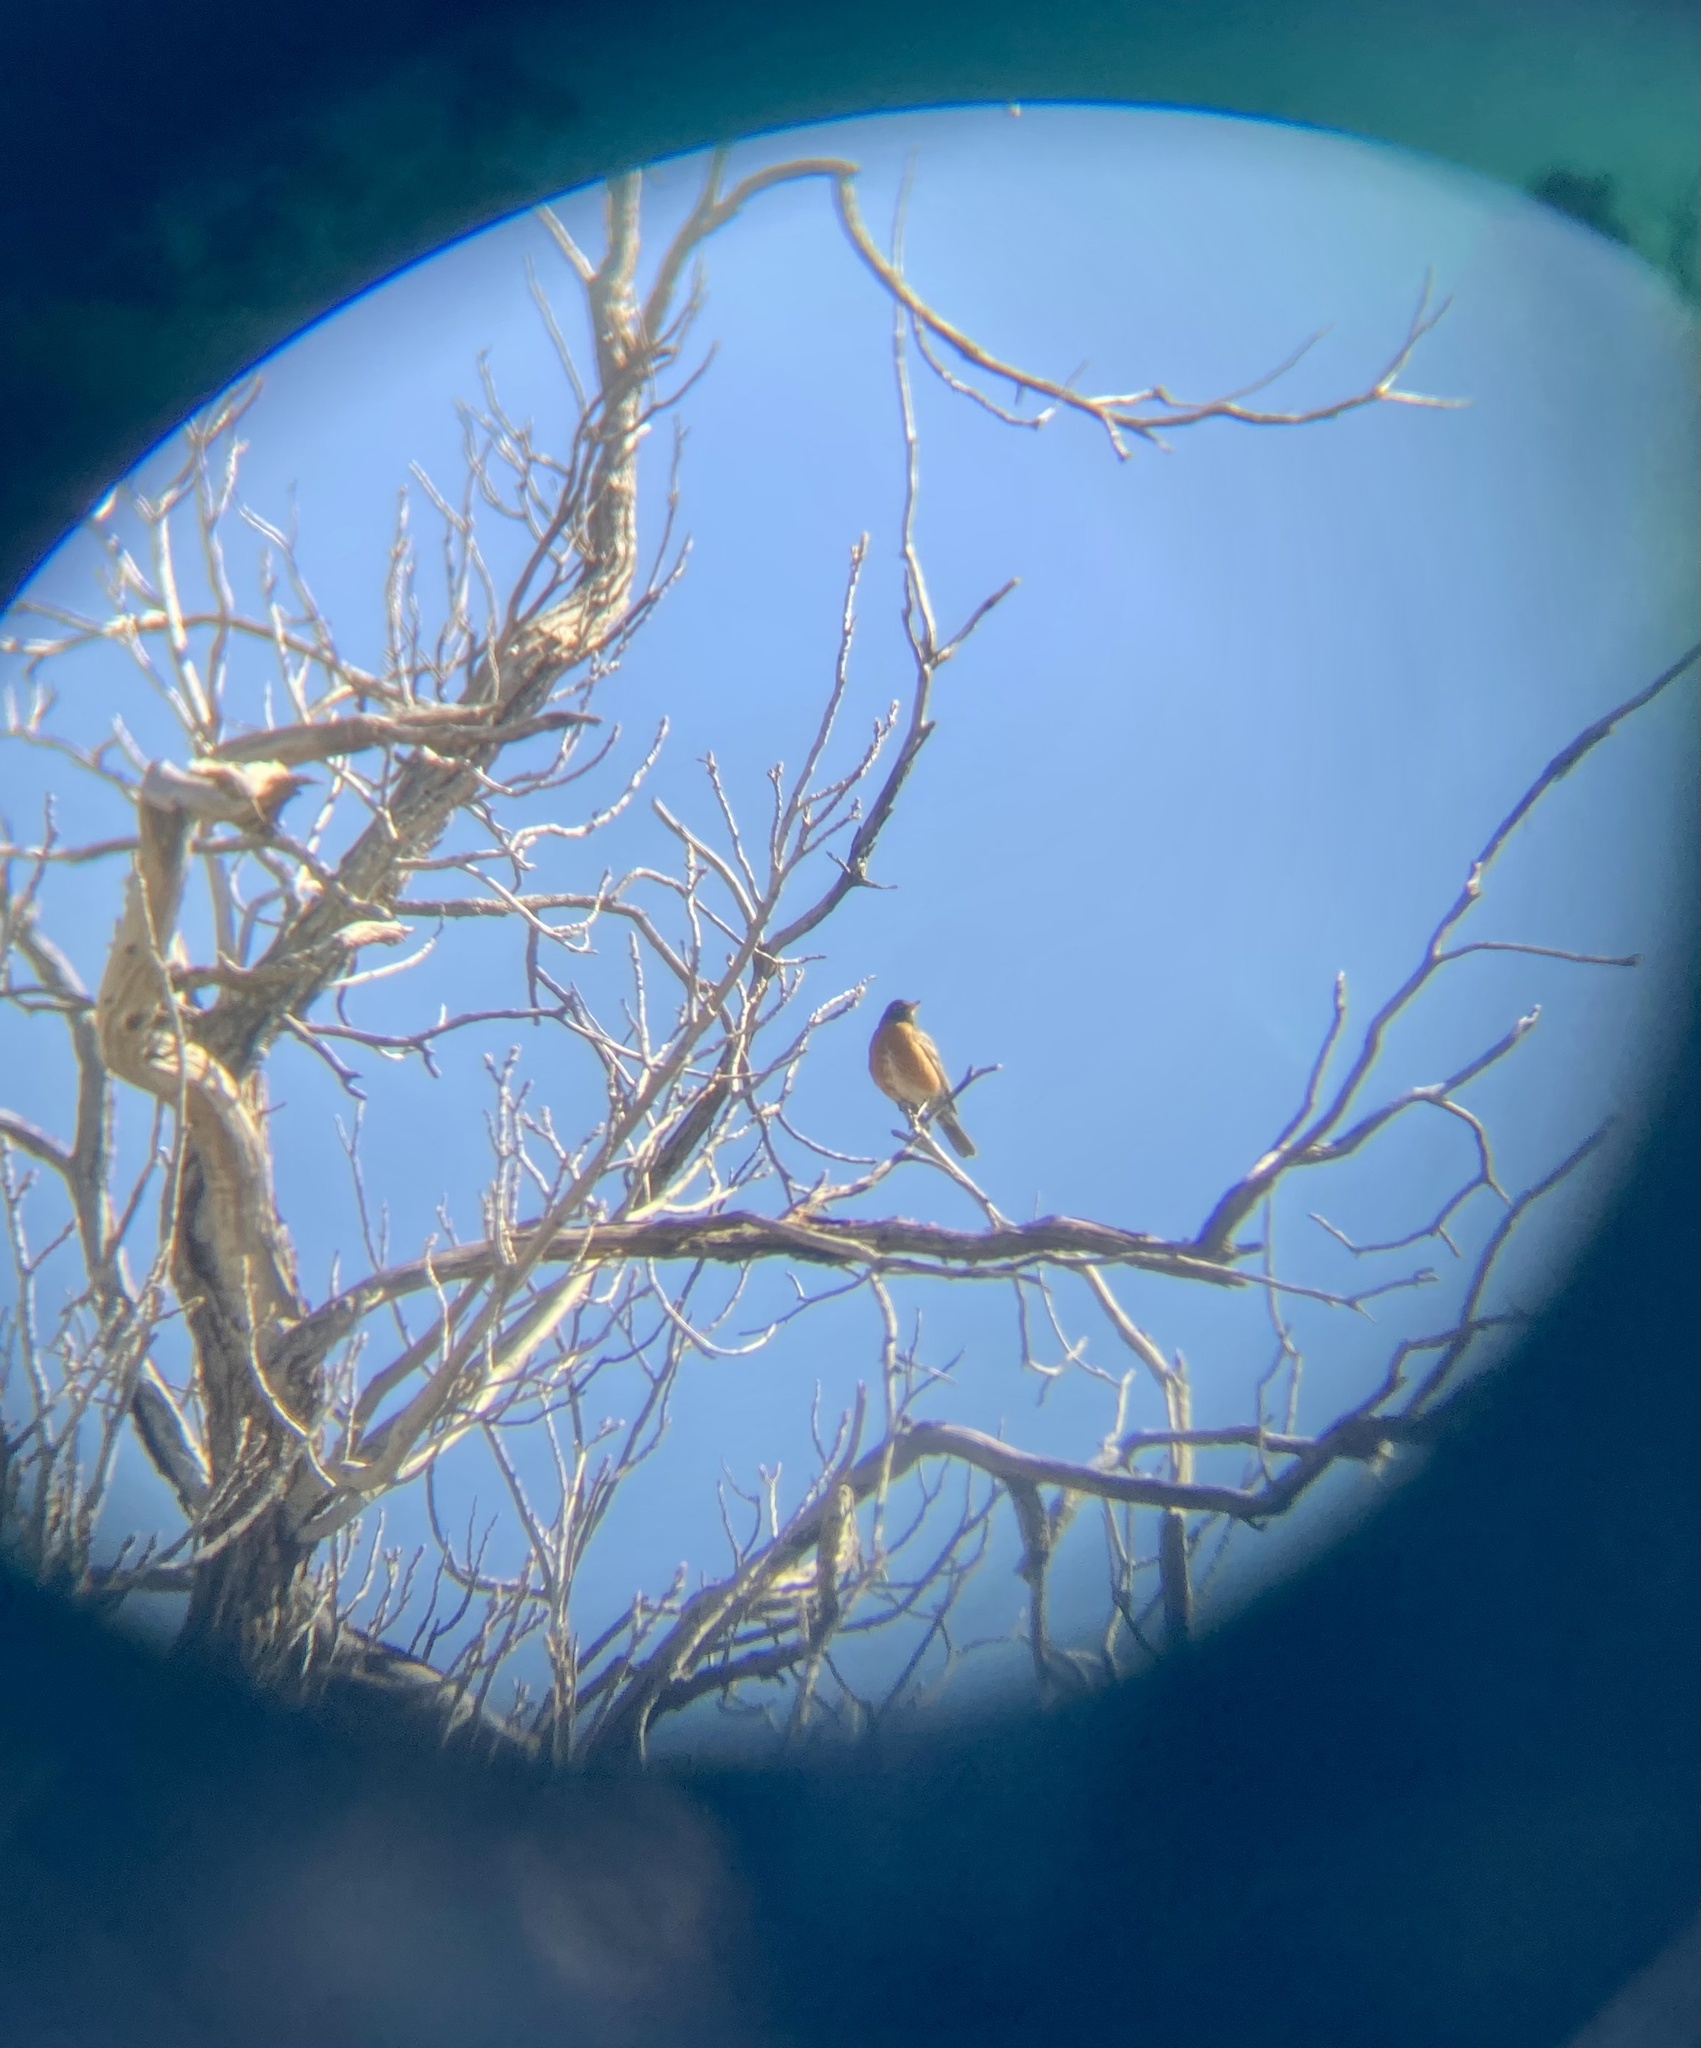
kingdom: Animalia
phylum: Chordata
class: Aves
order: Passeriformes
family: Turdidae
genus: Turdus
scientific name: Turdus migratorius
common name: American robin
